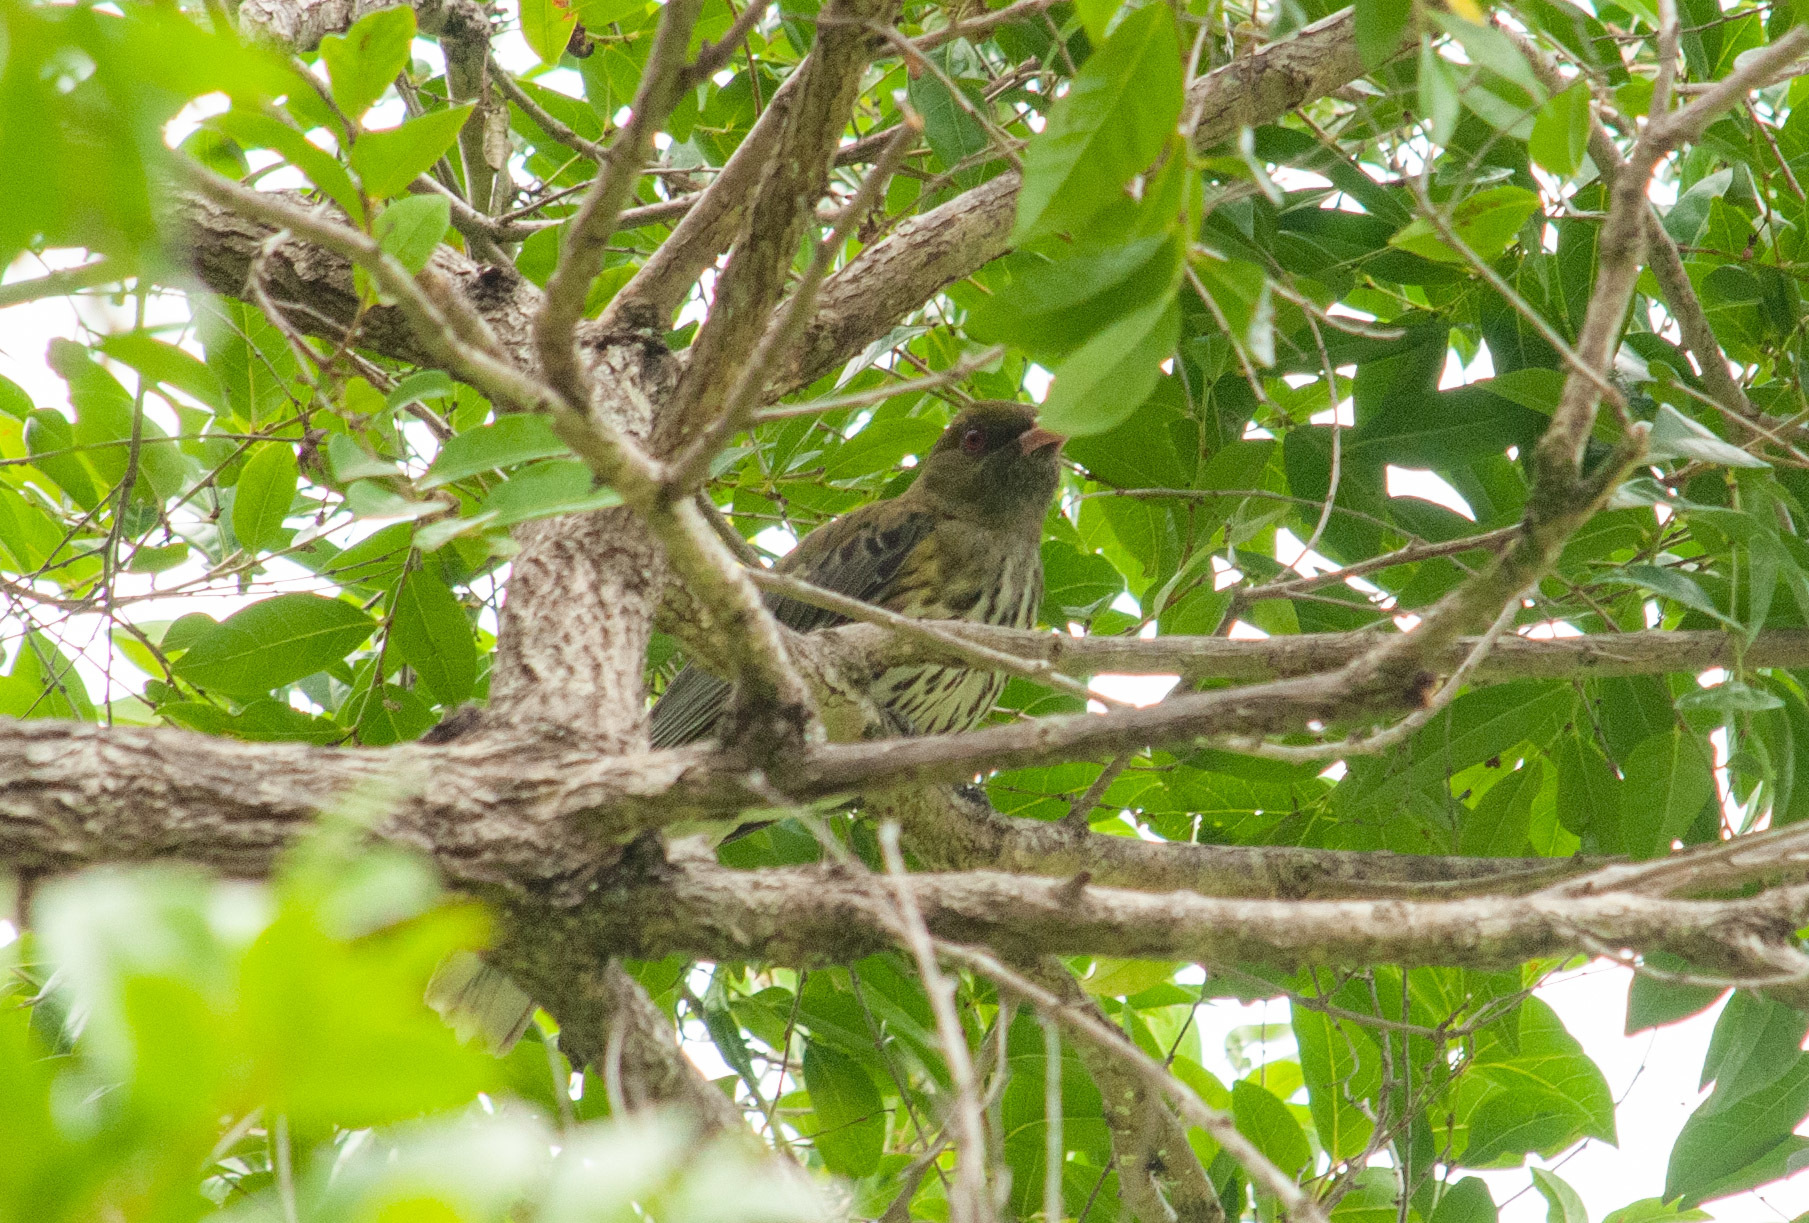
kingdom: Animalia
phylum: Chordata
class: Aves
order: Passeriformes
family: Oriolidae
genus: Oriolus
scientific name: Oriolus sagittatus
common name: Olive-backed oriole
